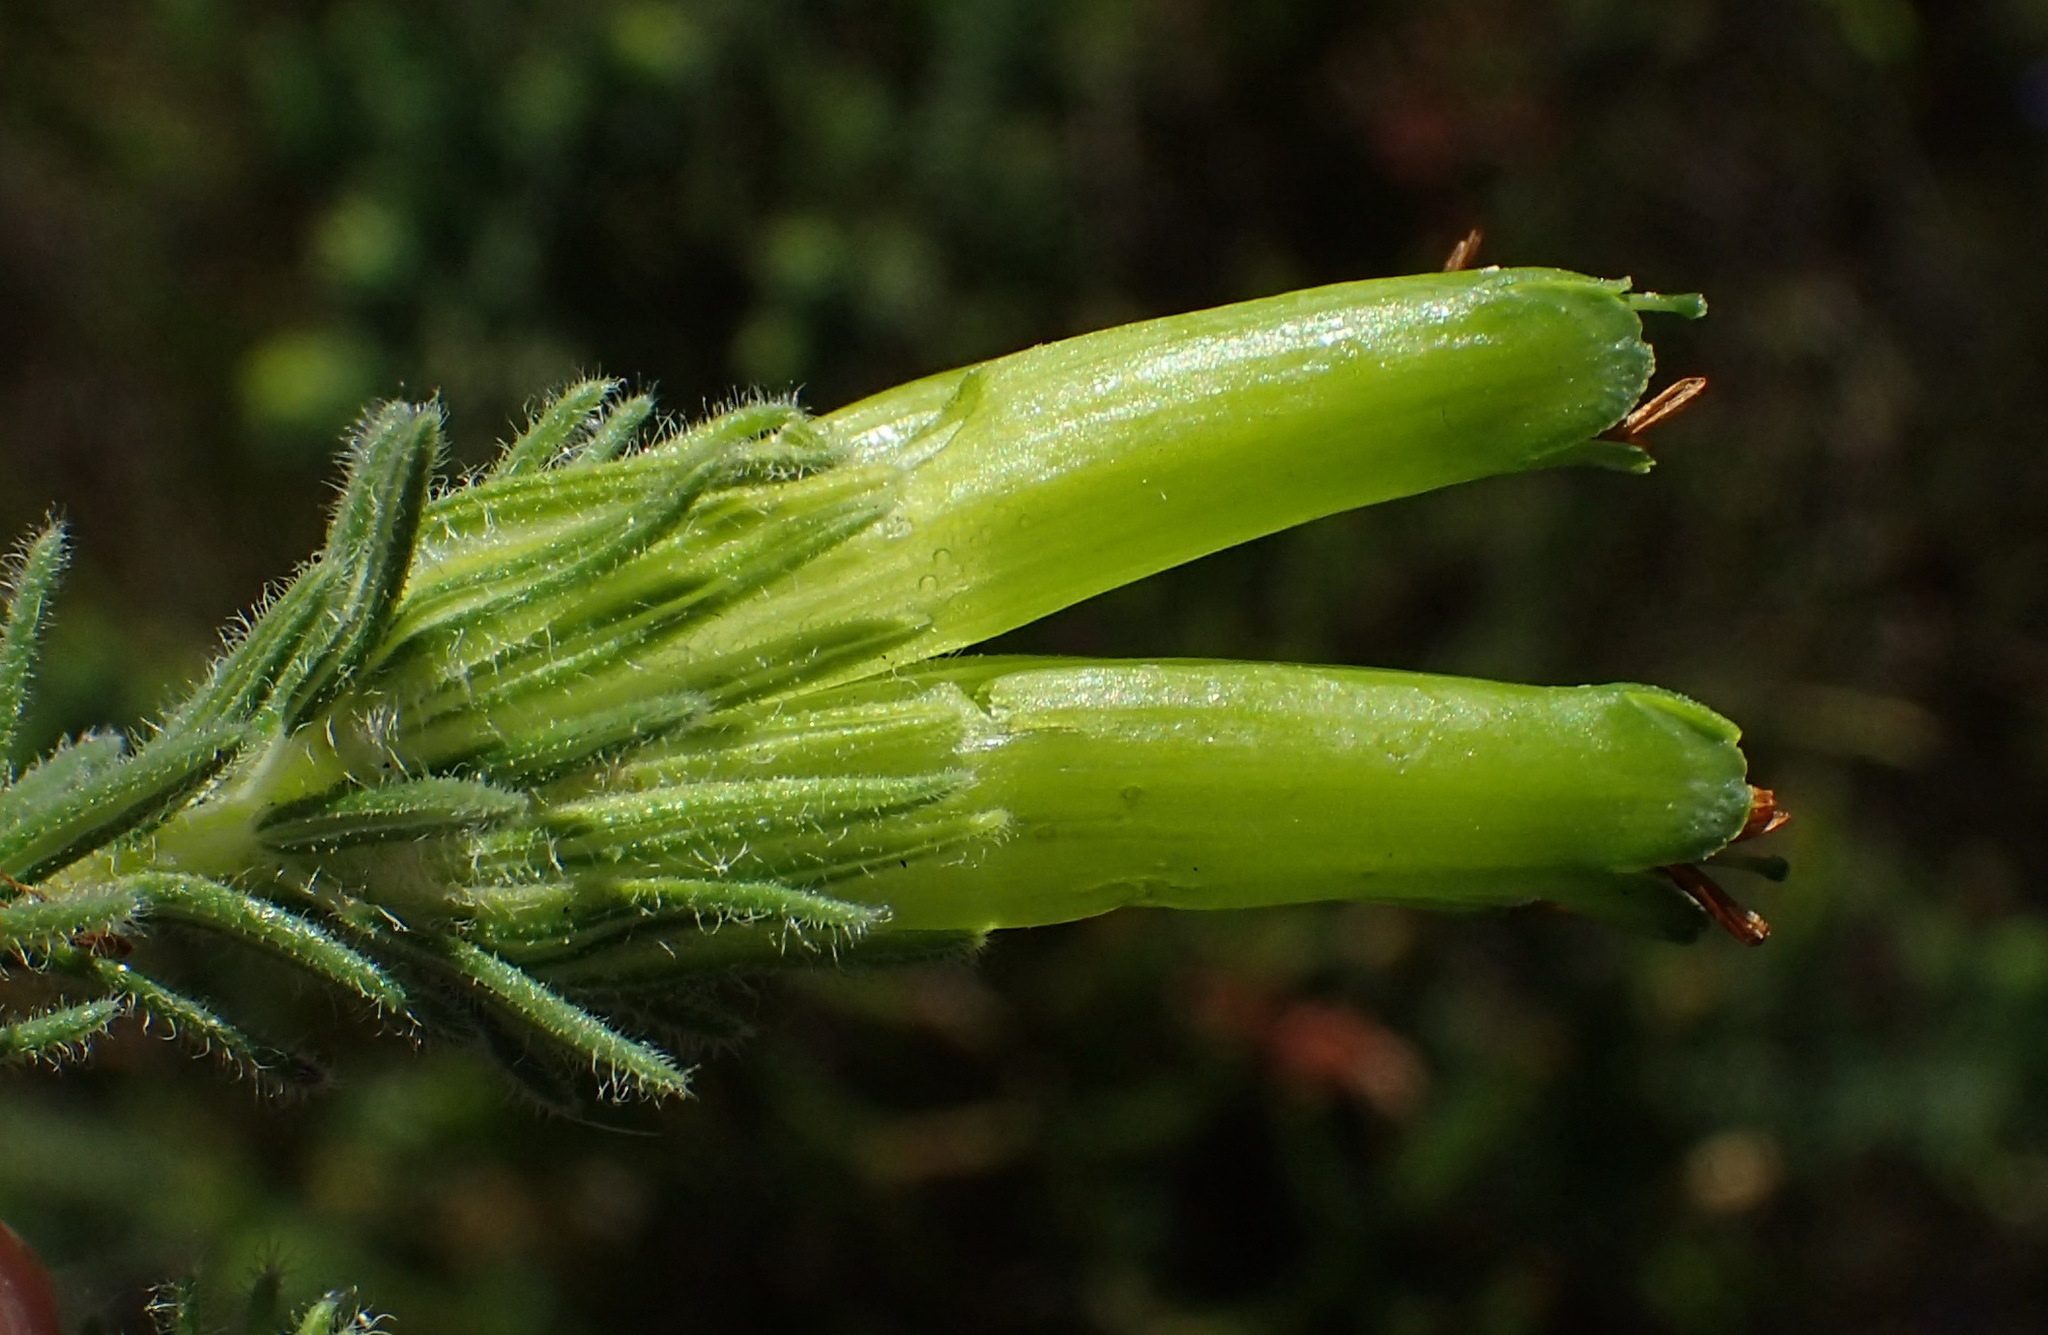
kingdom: Plantae
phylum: Tracheophyta
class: Magnoliopsida
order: Ericales
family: Ericaceae
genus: Erica
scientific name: Erica unicolor
